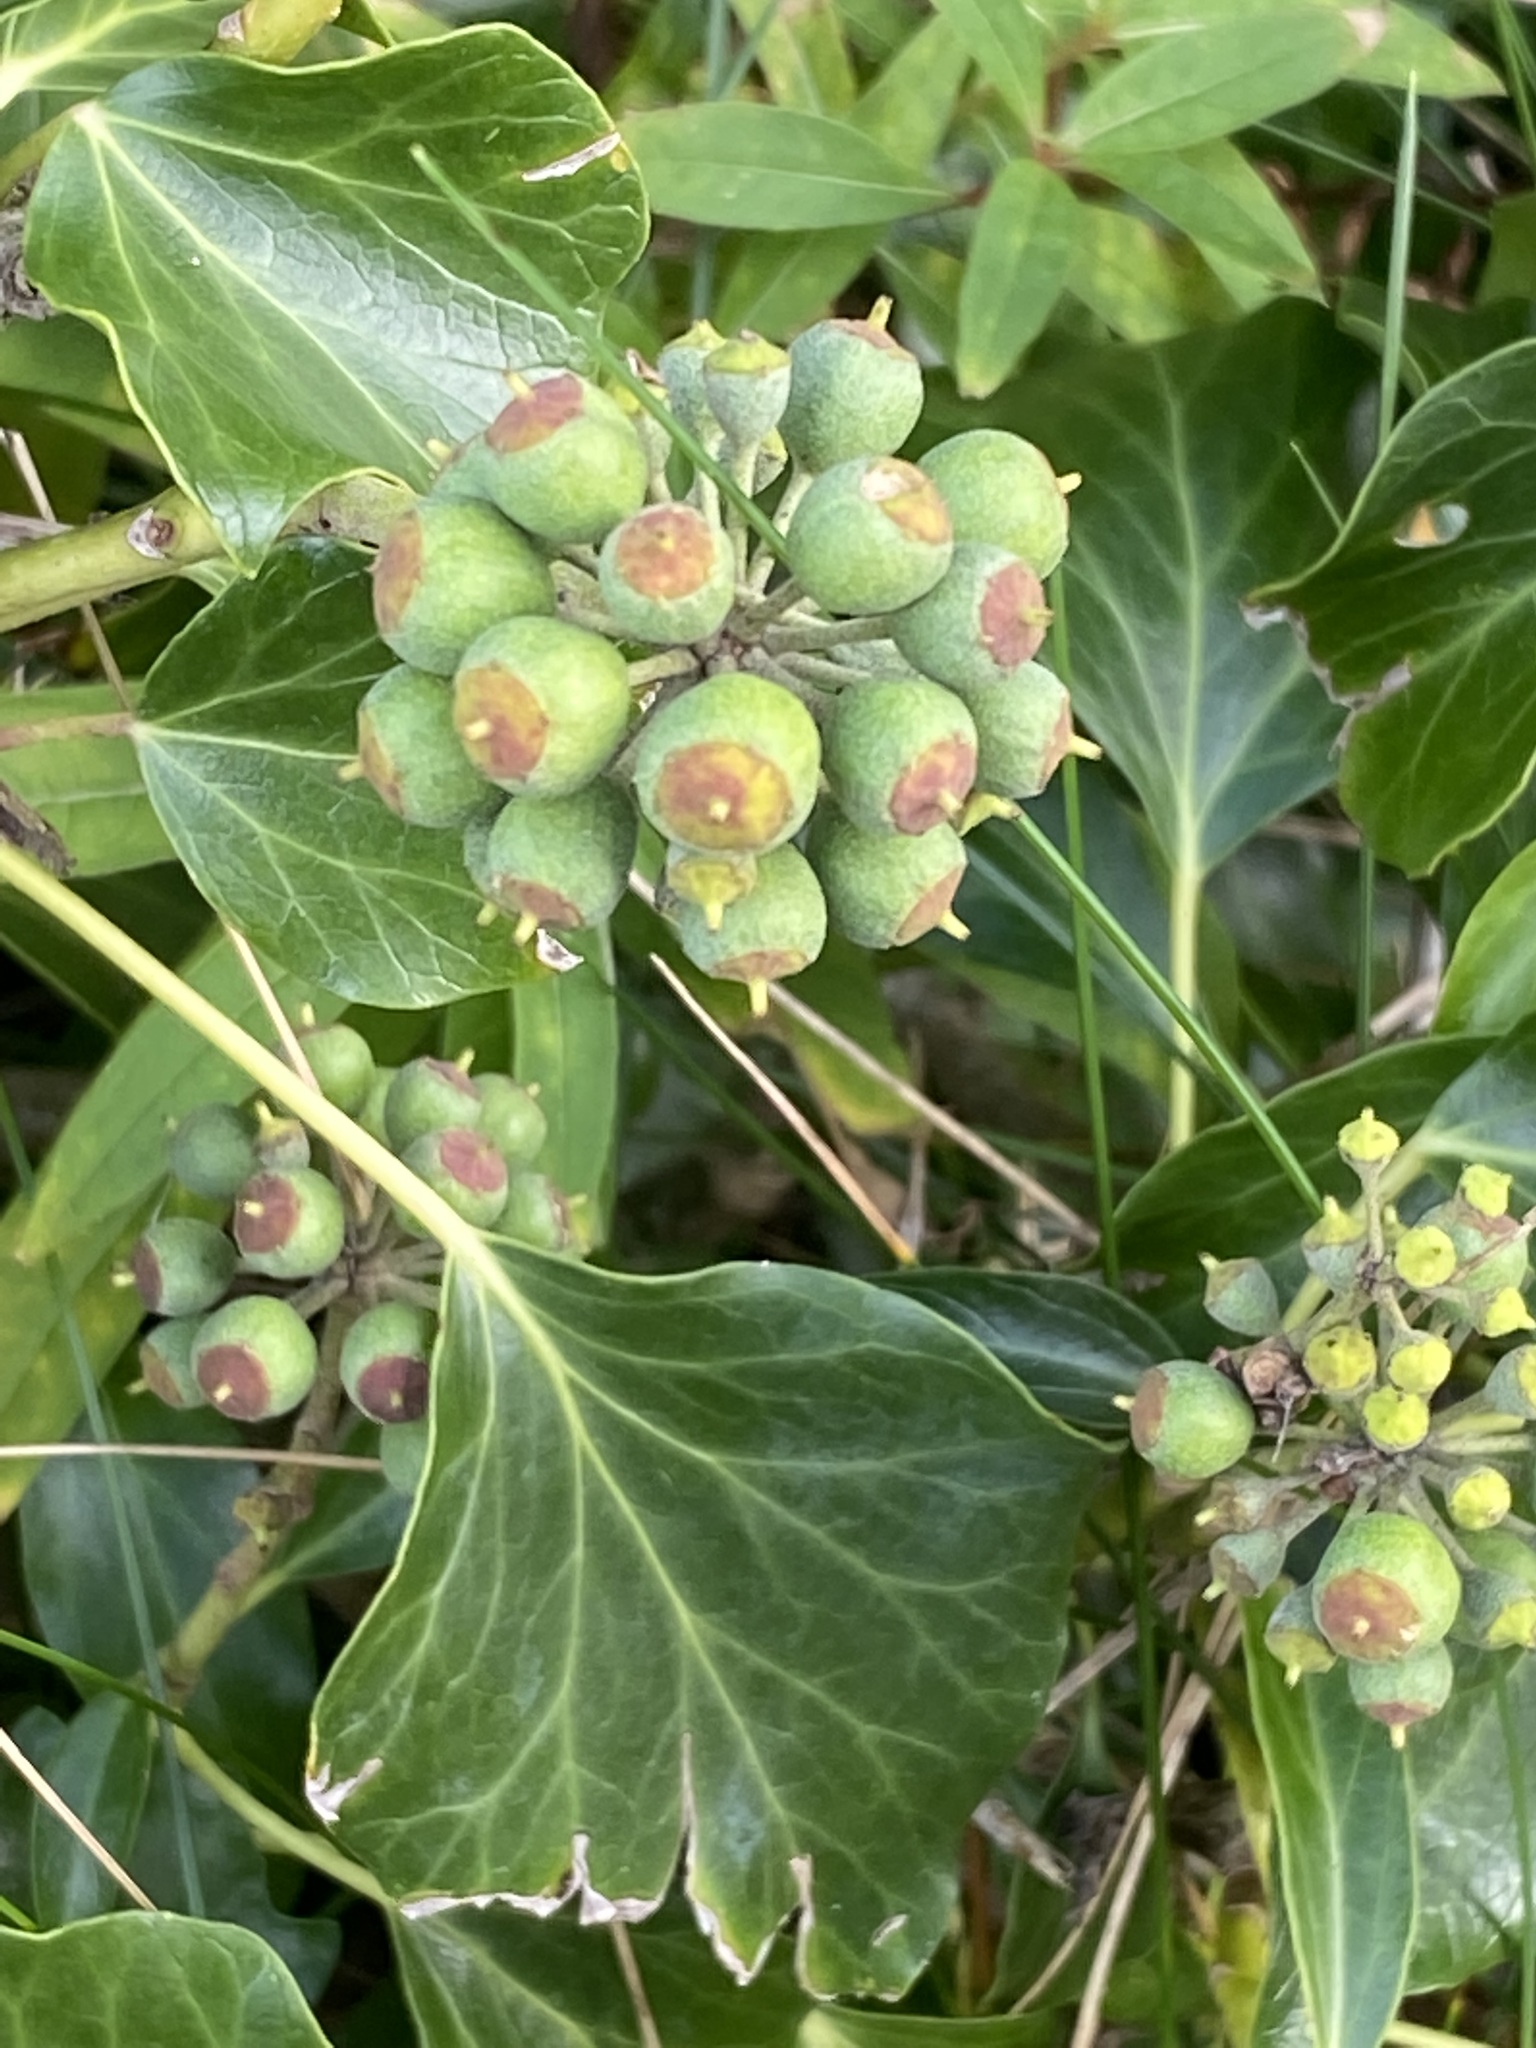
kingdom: Plantae
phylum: Tracheophyta
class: Magnoliopsida
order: Apiales
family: Araliaceae
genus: Hedera
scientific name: Hedera helix
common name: Ivy
